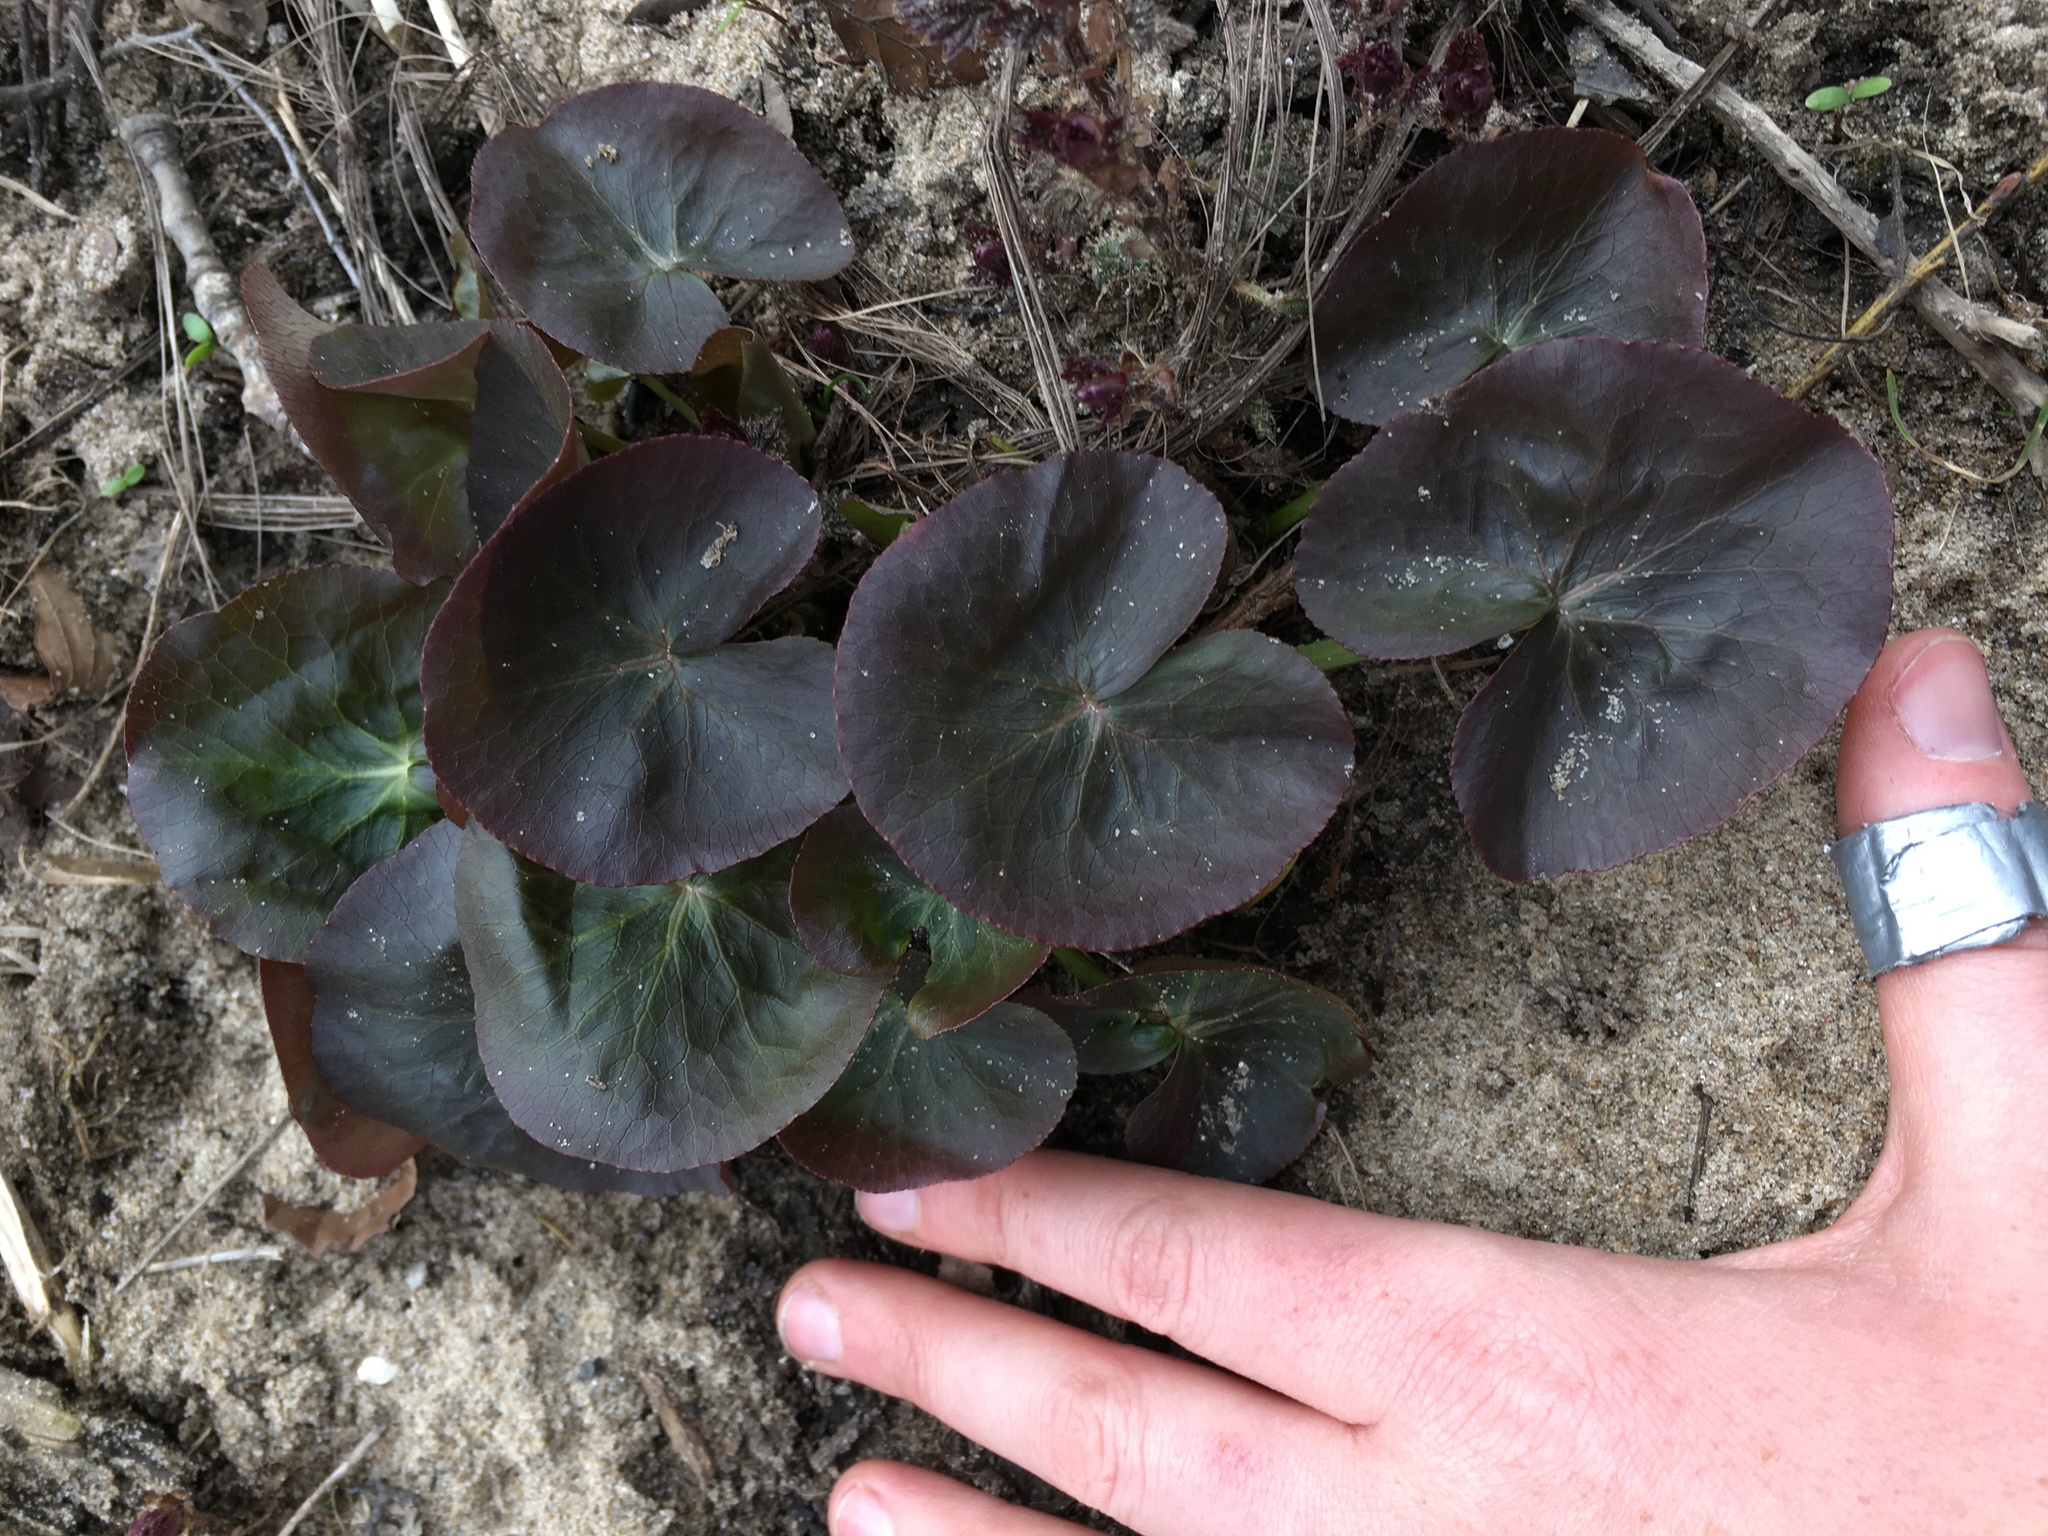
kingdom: Plantae
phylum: Tracheophyta
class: Magnoliopsida
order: Ranunculales
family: Ranunculaceae
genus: Caltha
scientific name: Caltha palustris
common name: Marsh marigold
